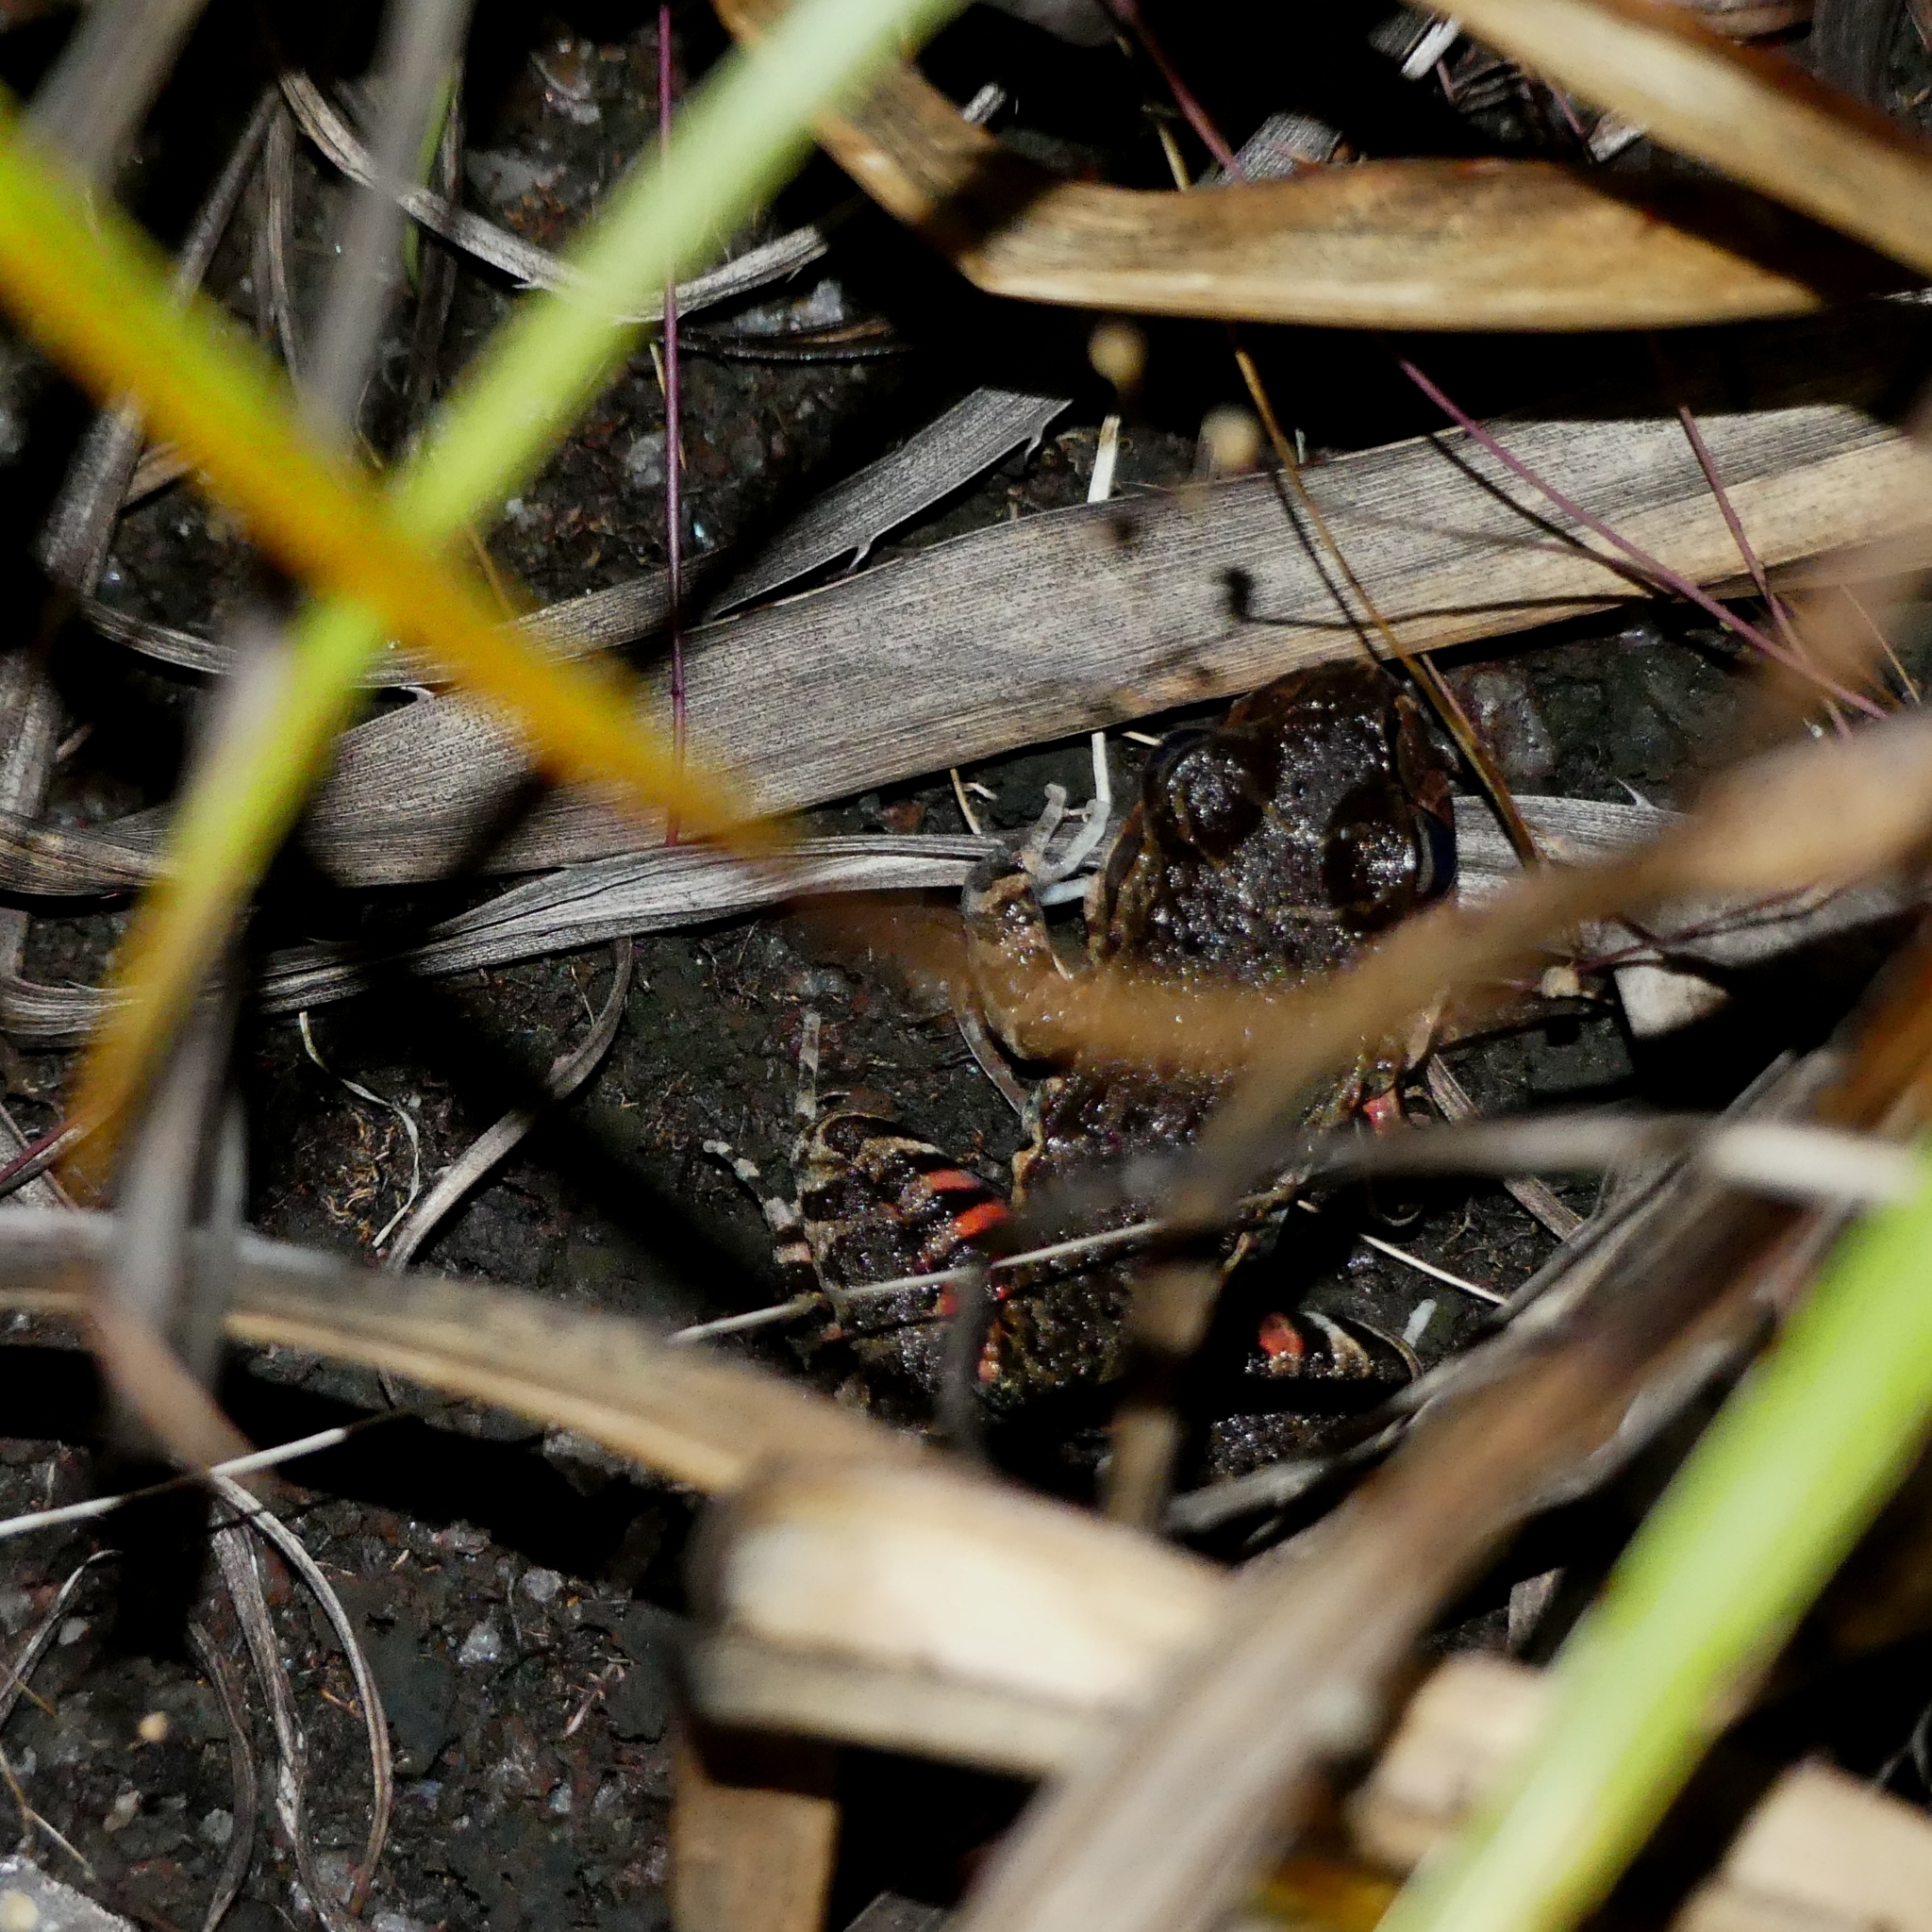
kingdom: Animalia
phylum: Chordata
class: Amphibia
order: Anura
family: Leptodactylidae
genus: Leptodactylus
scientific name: Leptodactylus myersi
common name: Myers' thin-toed frog
